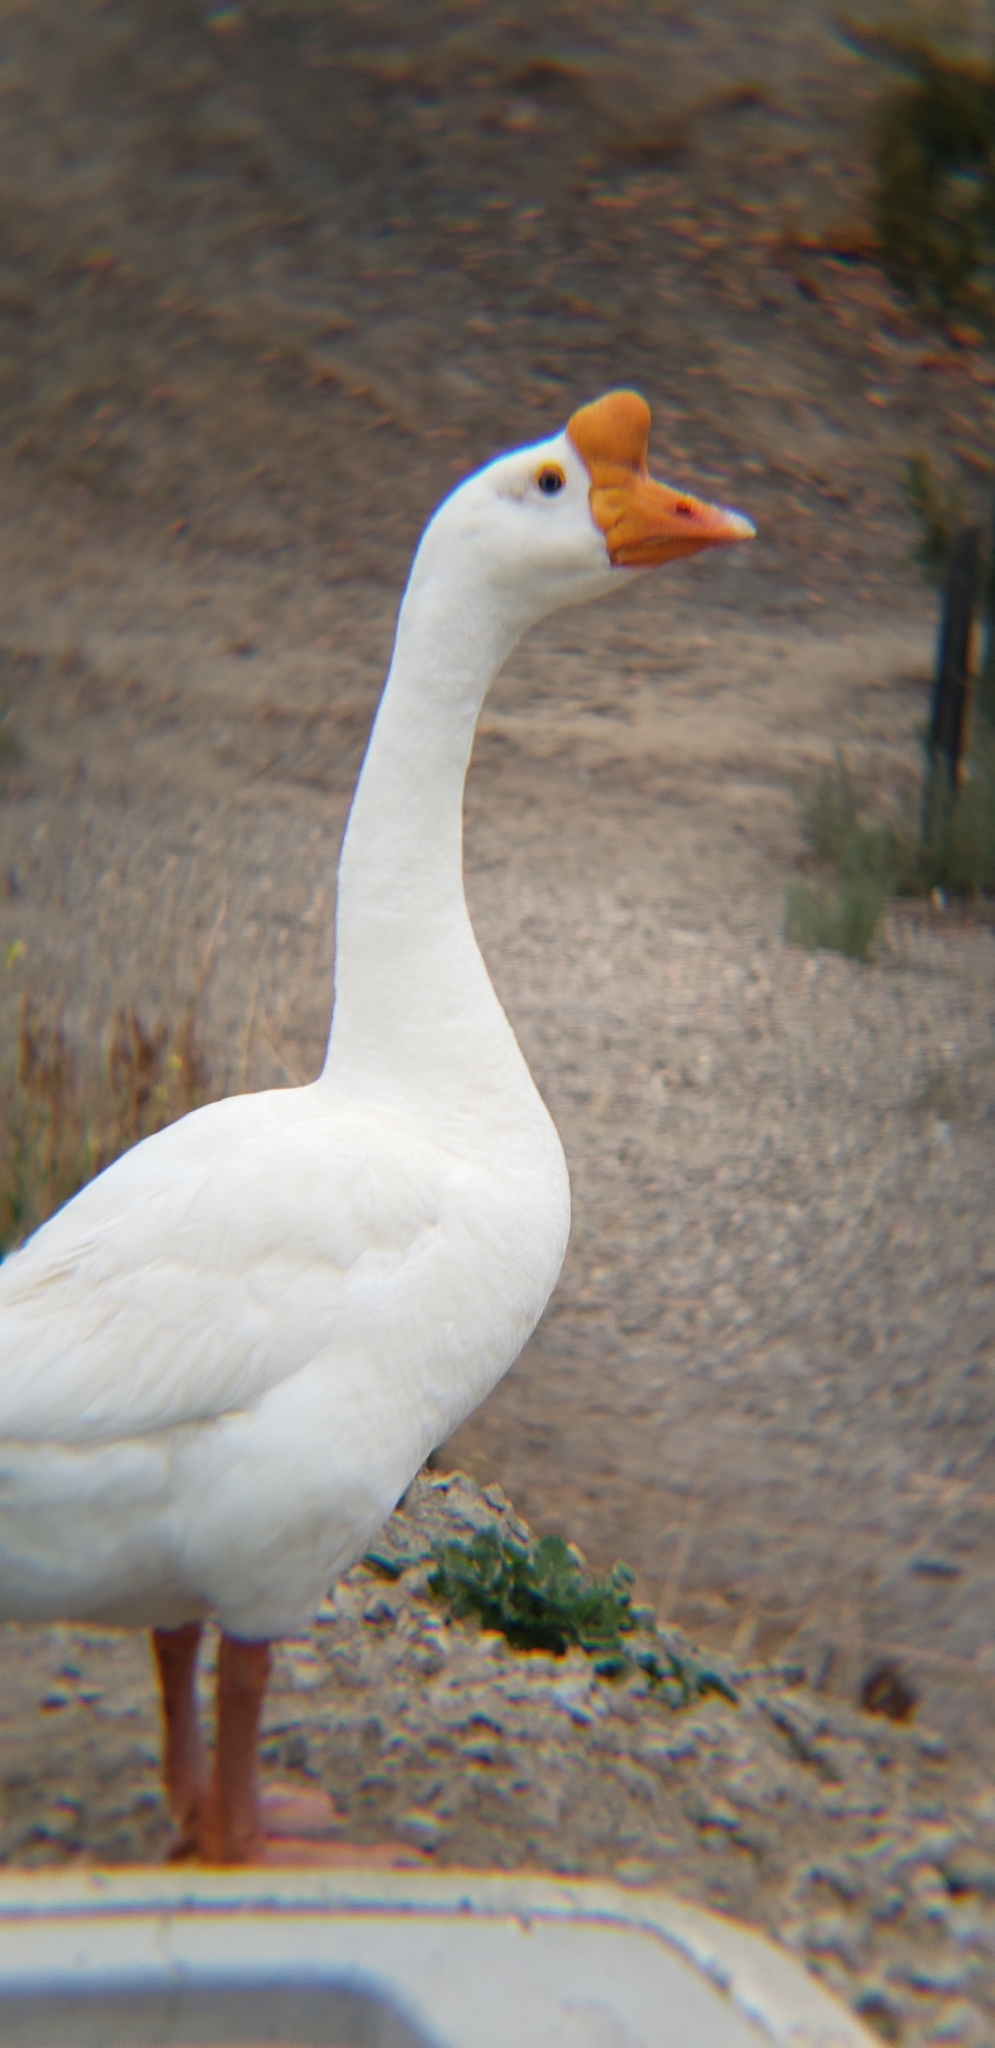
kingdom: Animalia
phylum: Chordata
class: Aves
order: Anseriformes
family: Anatidae
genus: Anser
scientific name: Anser cygnoides
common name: Swan goose
